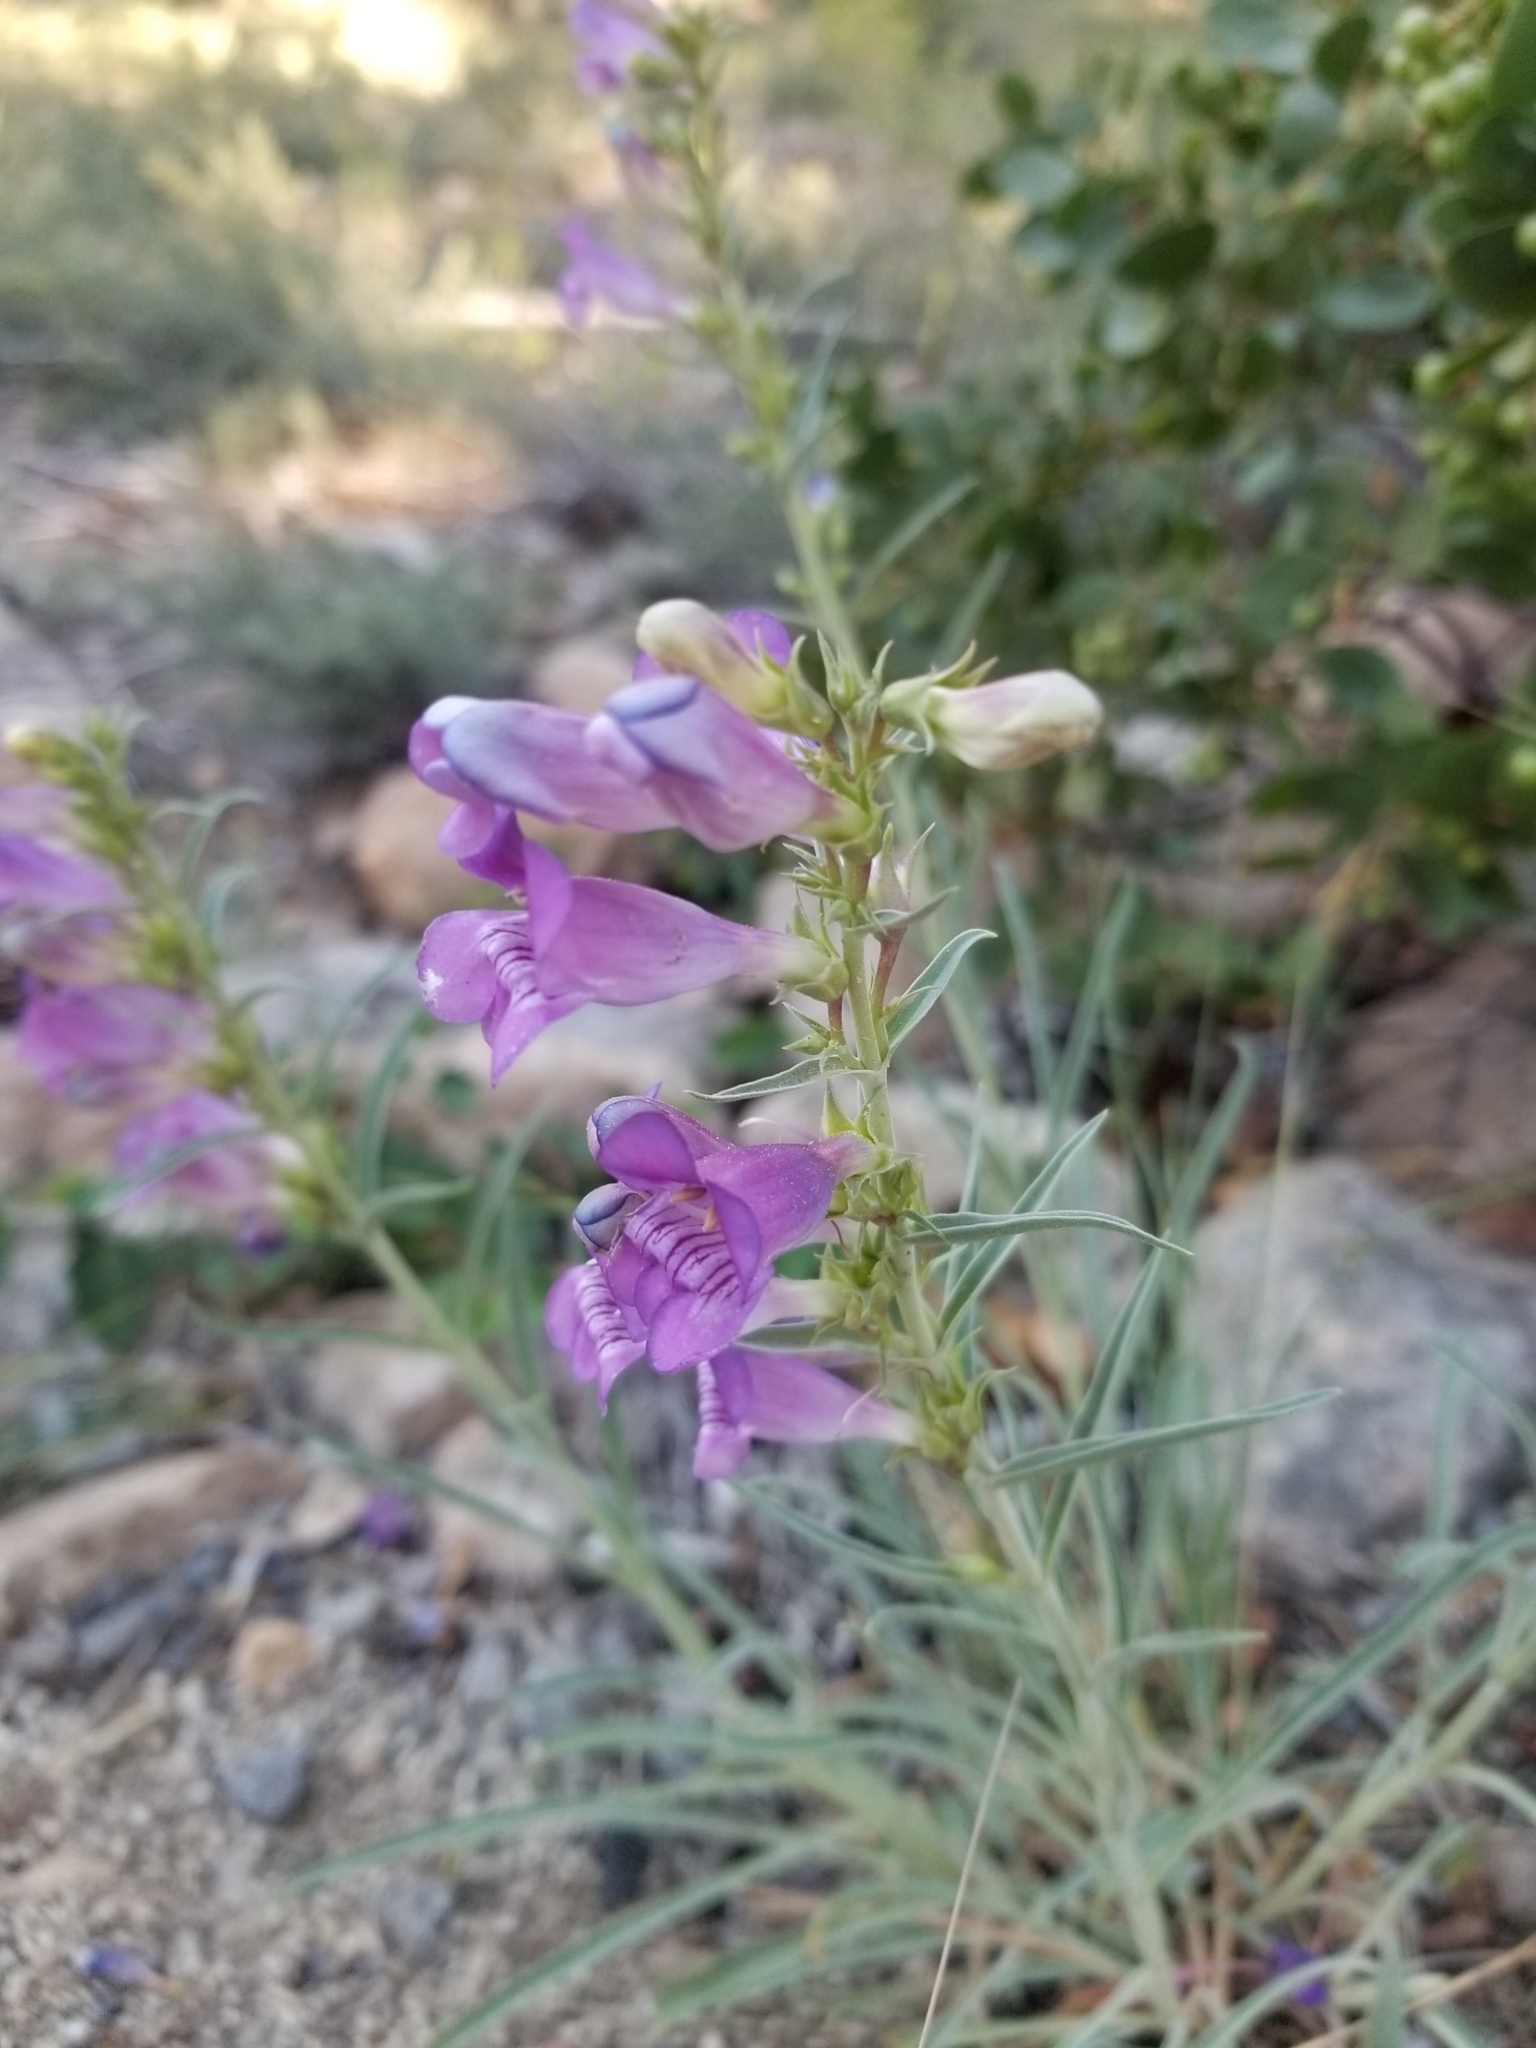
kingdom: Plantae
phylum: Tracheophyta
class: Magnoliopsida
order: Lamiales
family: Plantaginaceae
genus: Penstemon
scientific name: Penstemon heterophyllus
